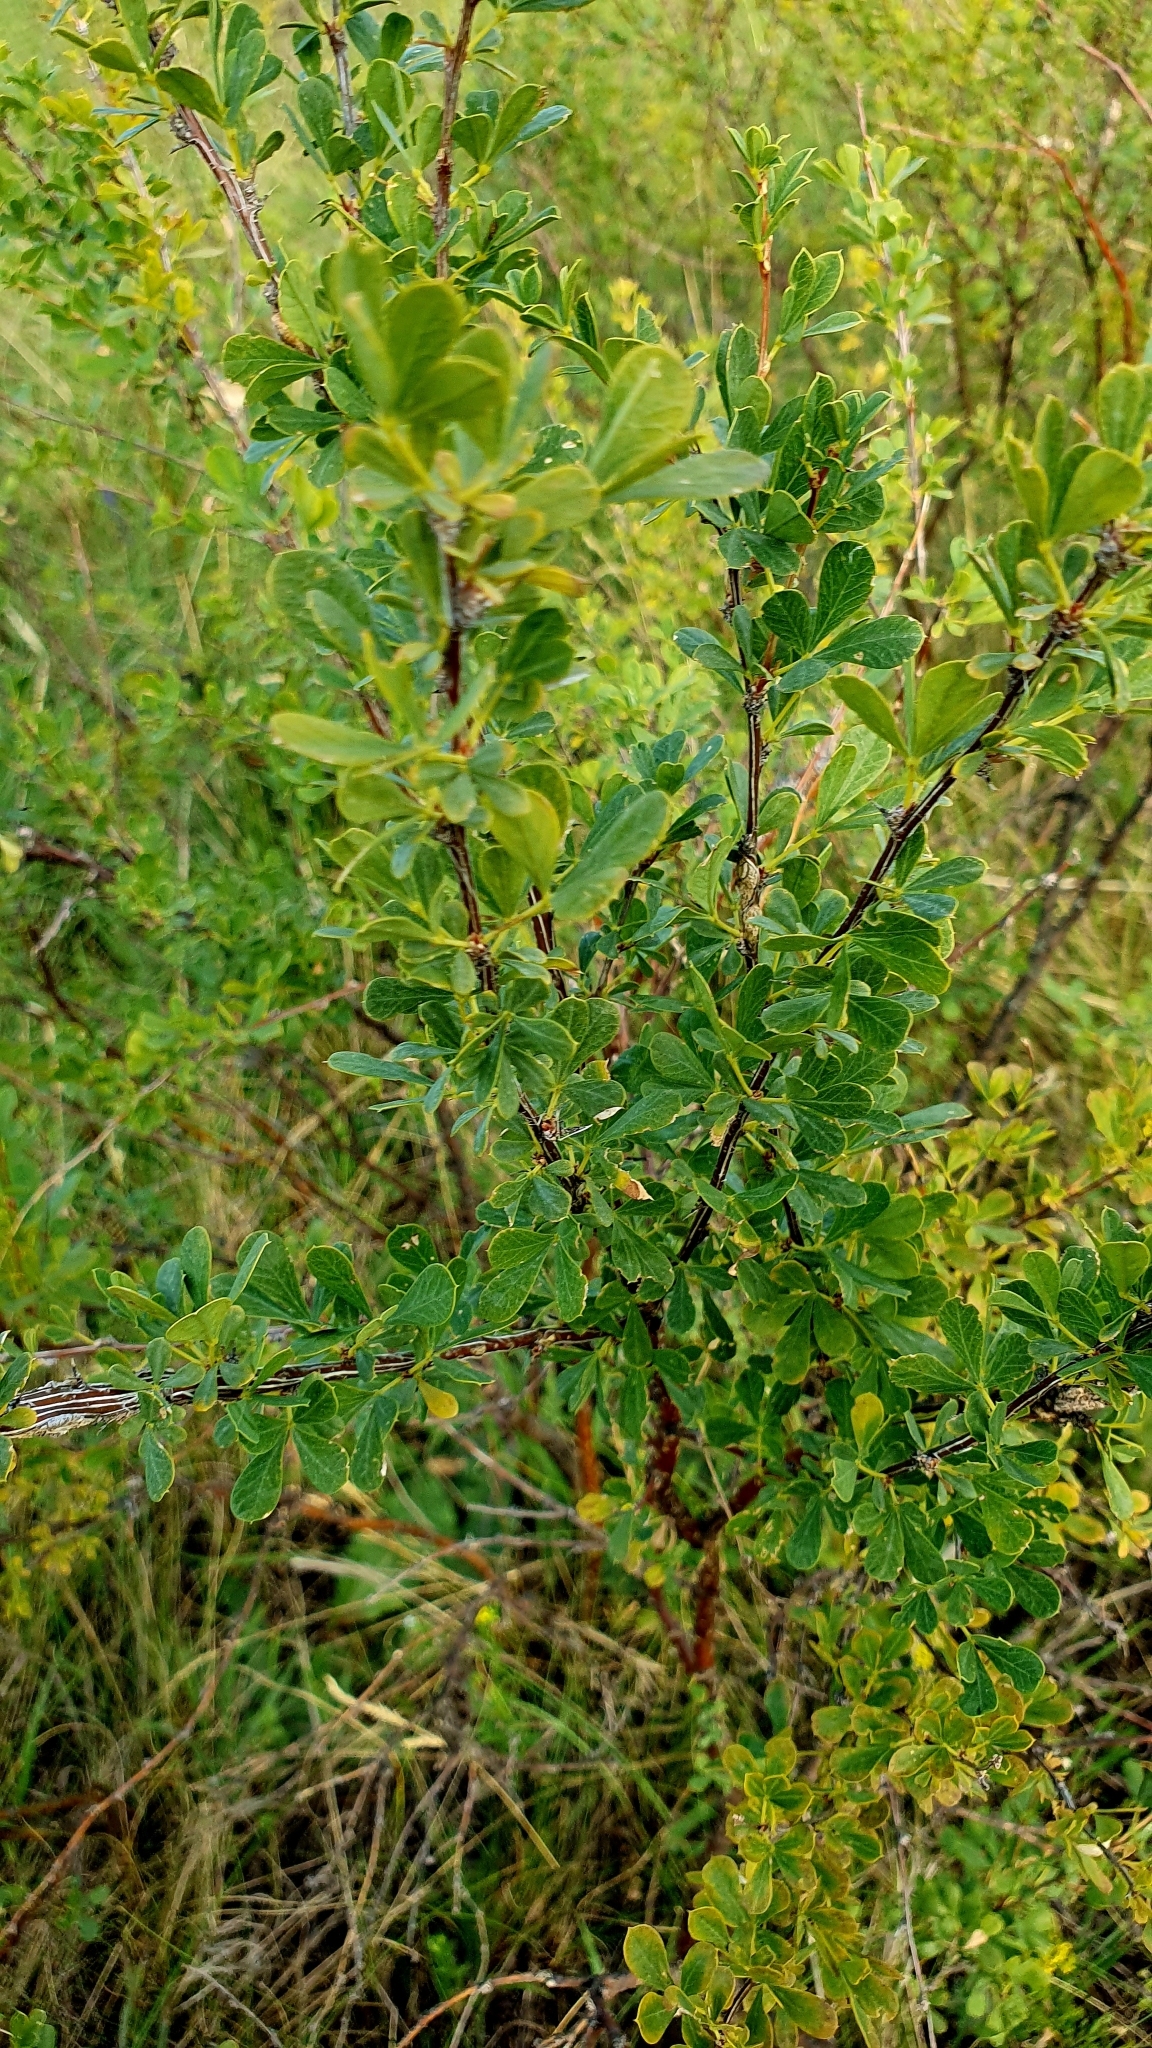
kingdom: Plantae
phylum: Tracheophyta
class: Magnoliopsida
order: Fabales
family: Fabaceae
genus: Caragana
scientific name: Caragana frutex
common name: Russian peashrub
